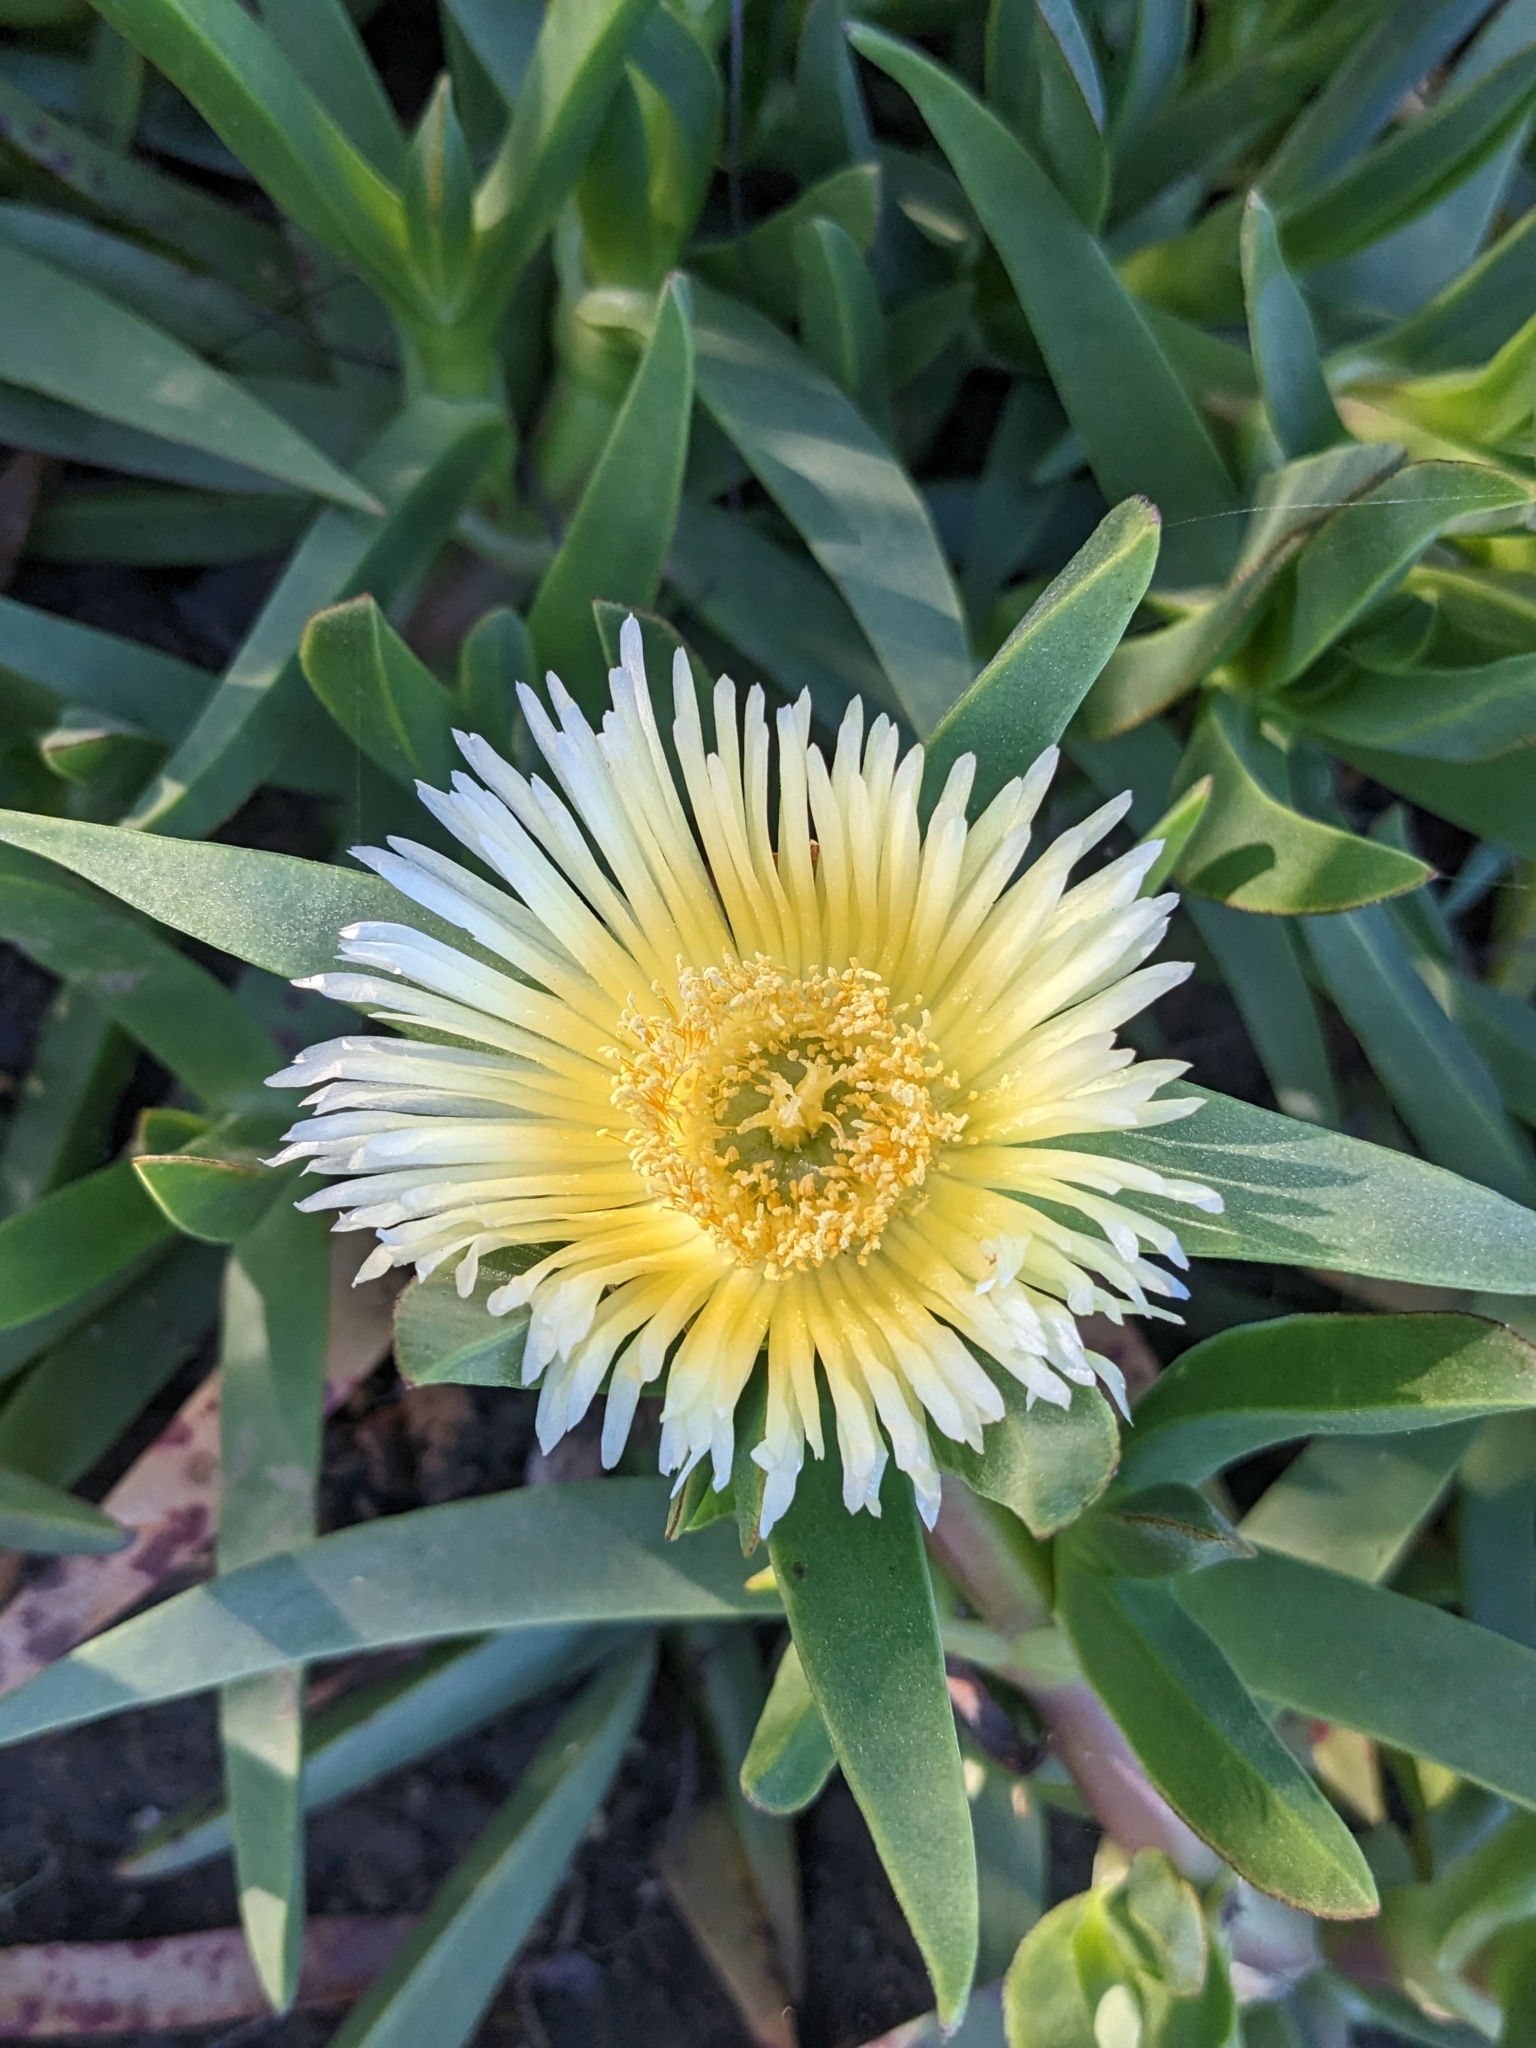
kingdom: Plantae
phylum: Tracheophyta
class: Magnoliopsida
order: Caryophyllales
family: Aizoaceae
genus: Carpobrotus
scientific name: Carpobrotus edulis
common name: Hottentot-fig
